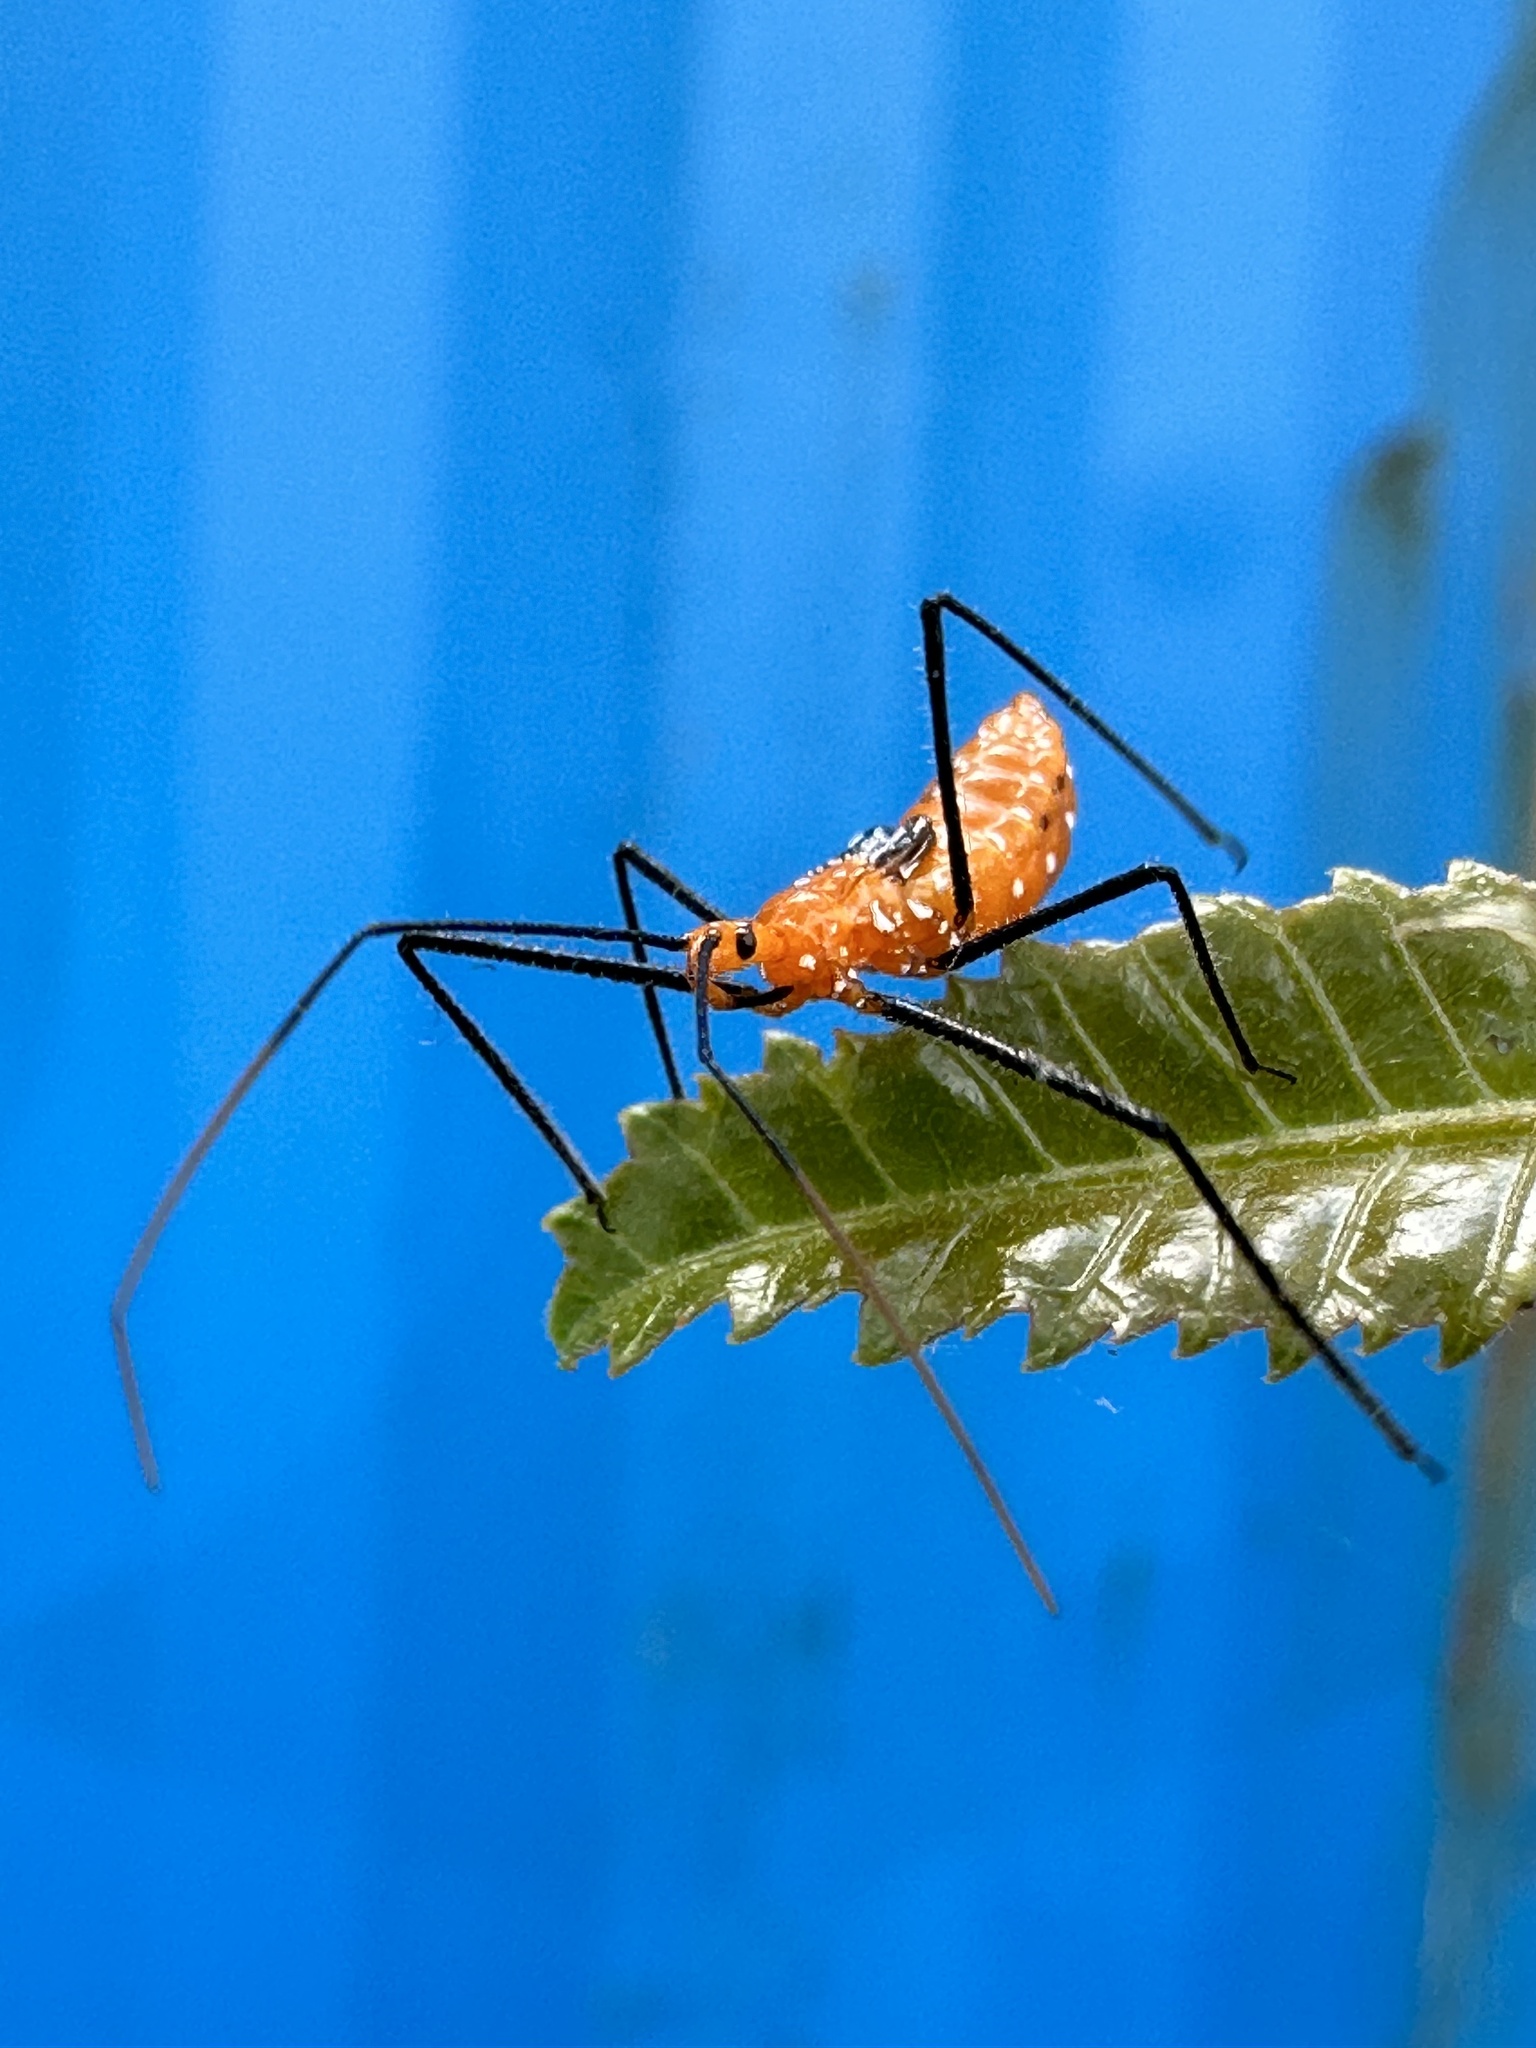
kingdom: Animalia
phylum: Arthropoda
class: Insecta
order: Hemiptera
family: Reduviidae
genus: Zelus
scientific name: Zelus longipes
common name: Milkweed assassin bug
